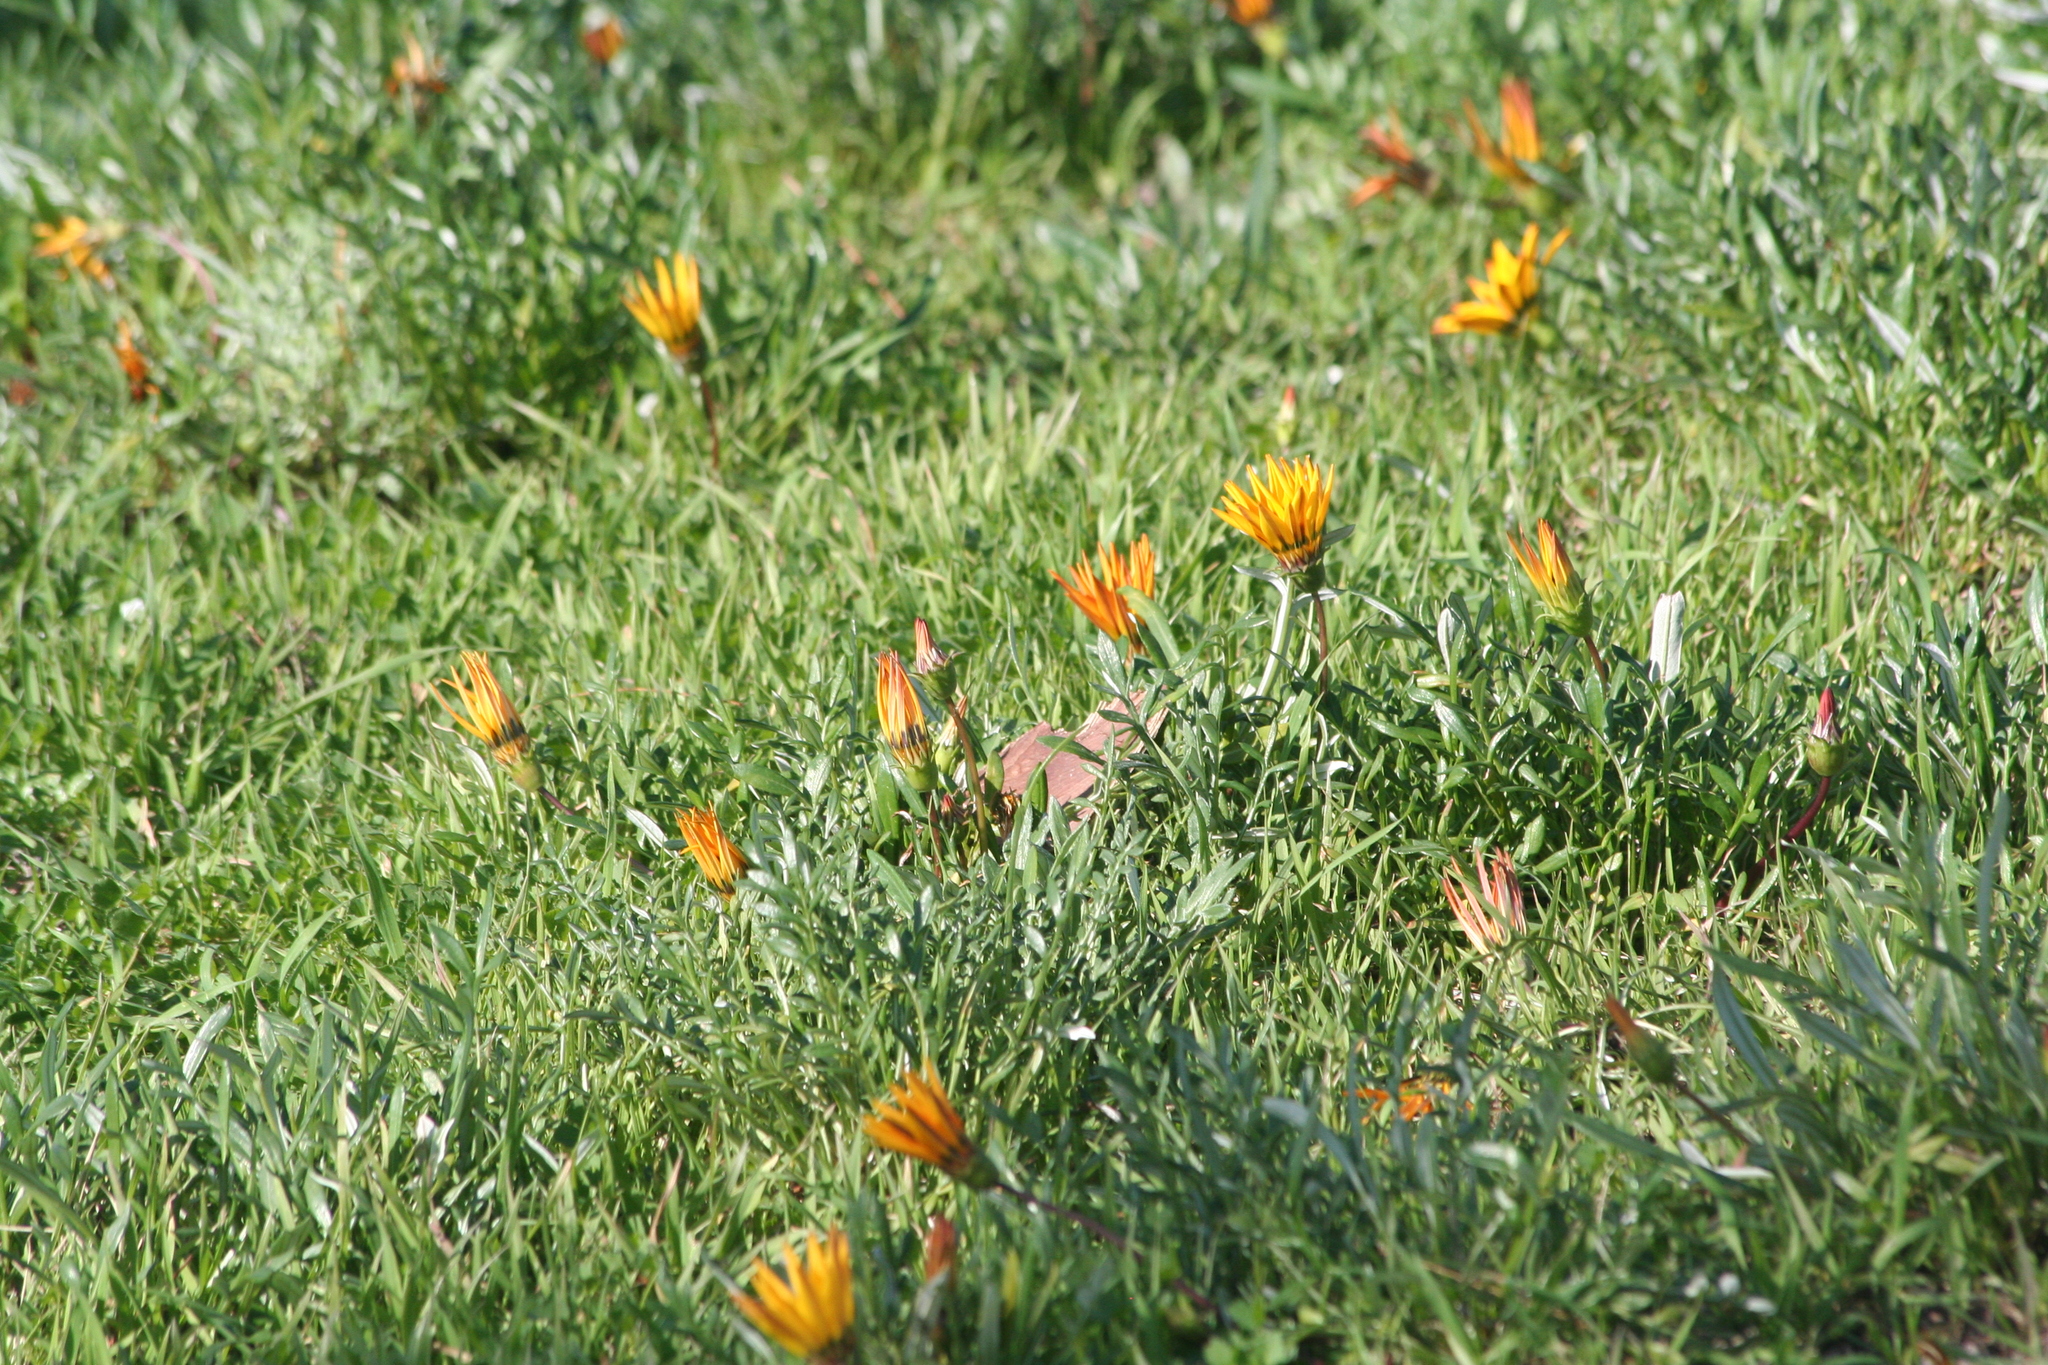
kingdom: Plantae
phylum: Tracheophyta
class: Magnoliopsida
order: Asterales
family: Asteraceae
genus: Gazania
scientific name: Gazania splendens
